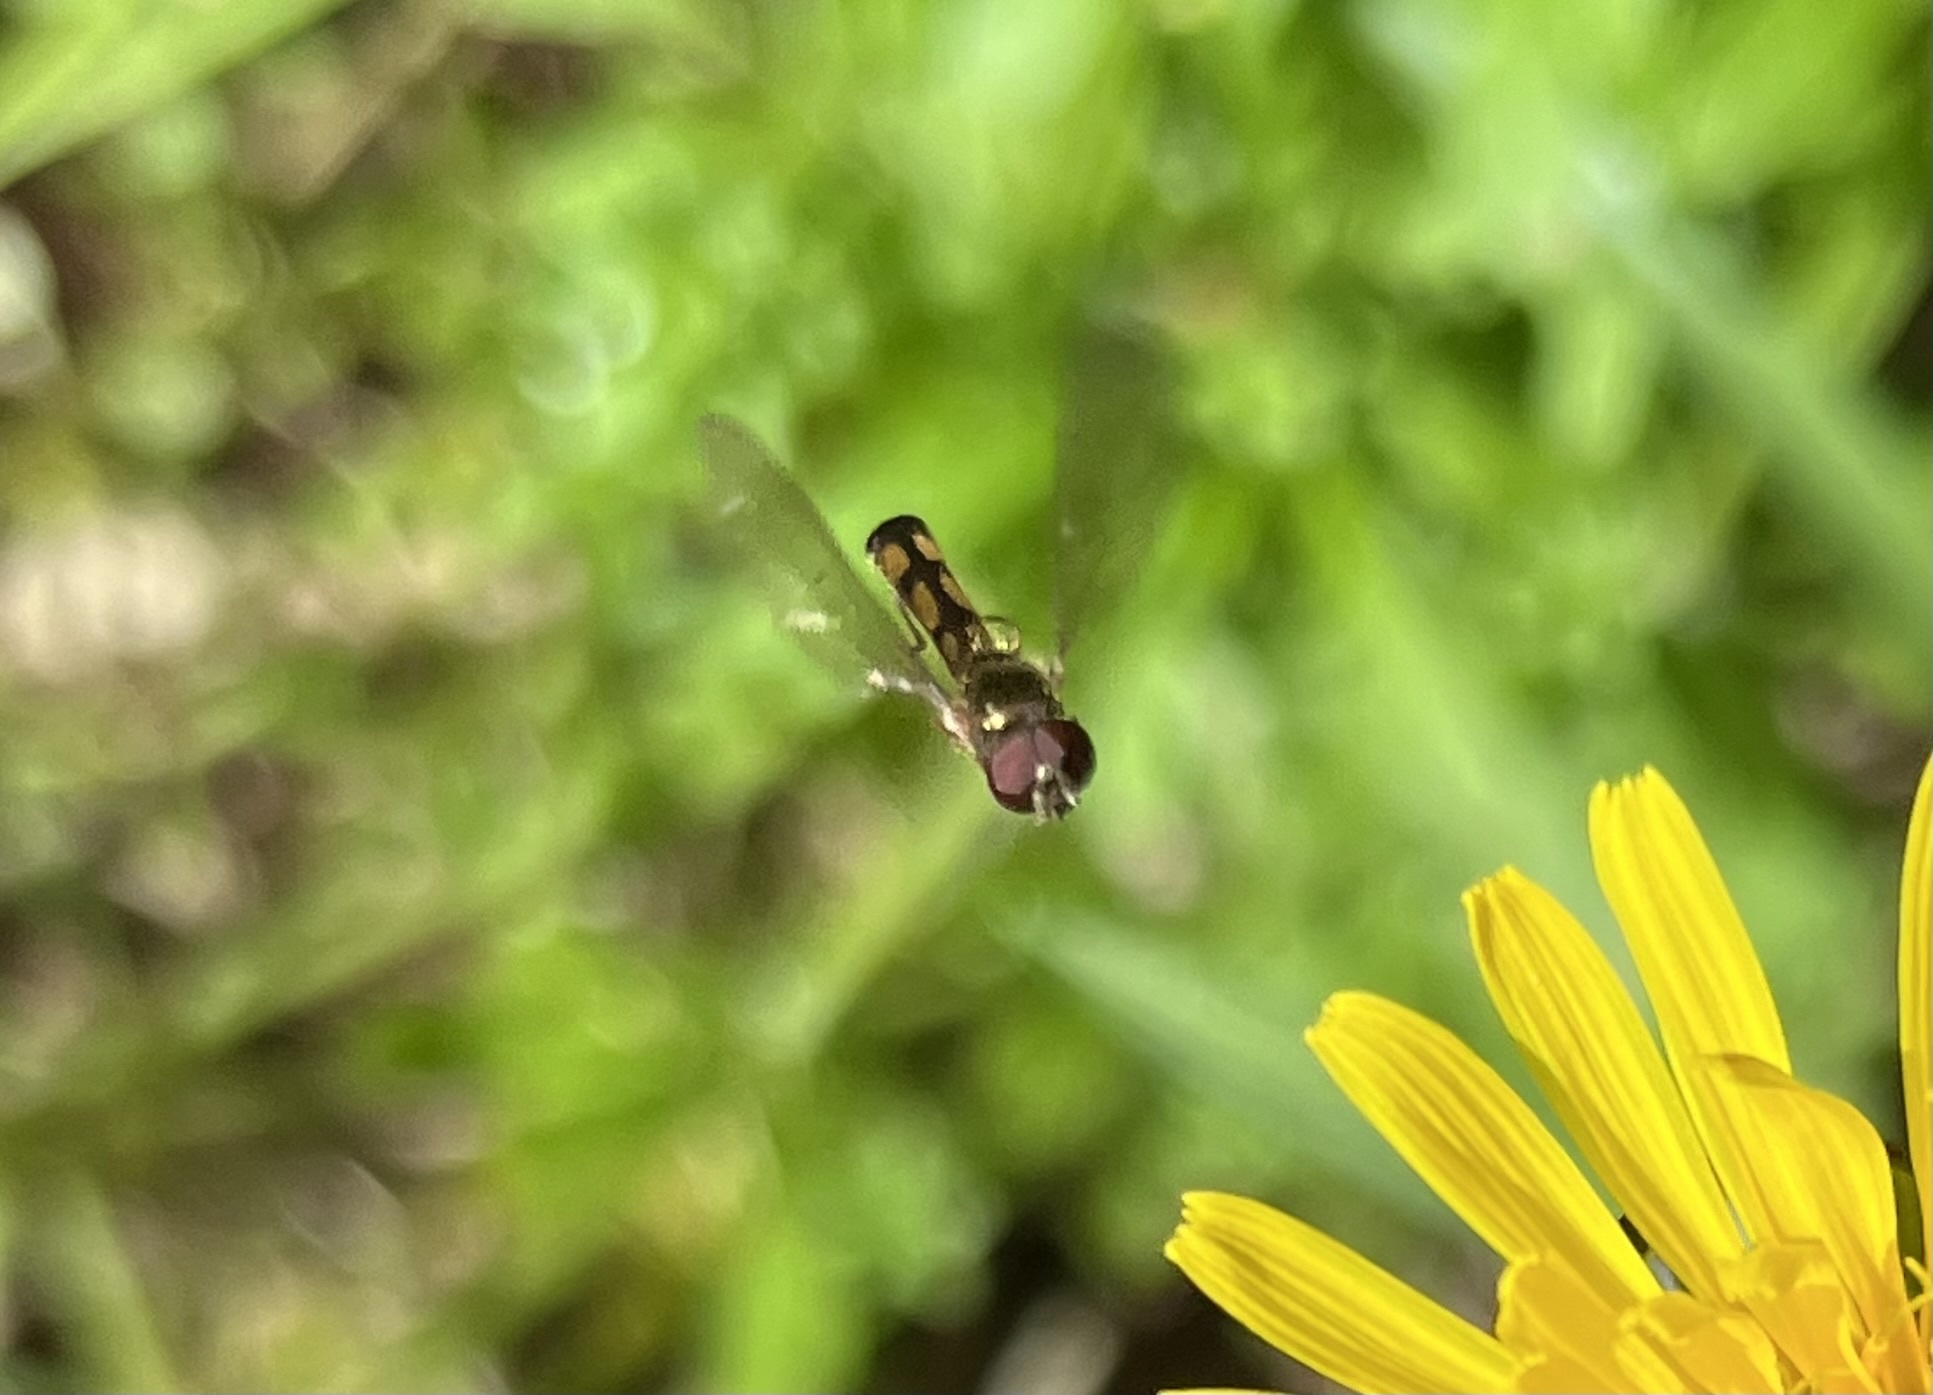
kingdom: Animalia
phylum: Arthropoda
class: Insecta
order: Diptera
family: Syrphidae
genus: Melanostoma
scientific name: Melanostoma scalare
